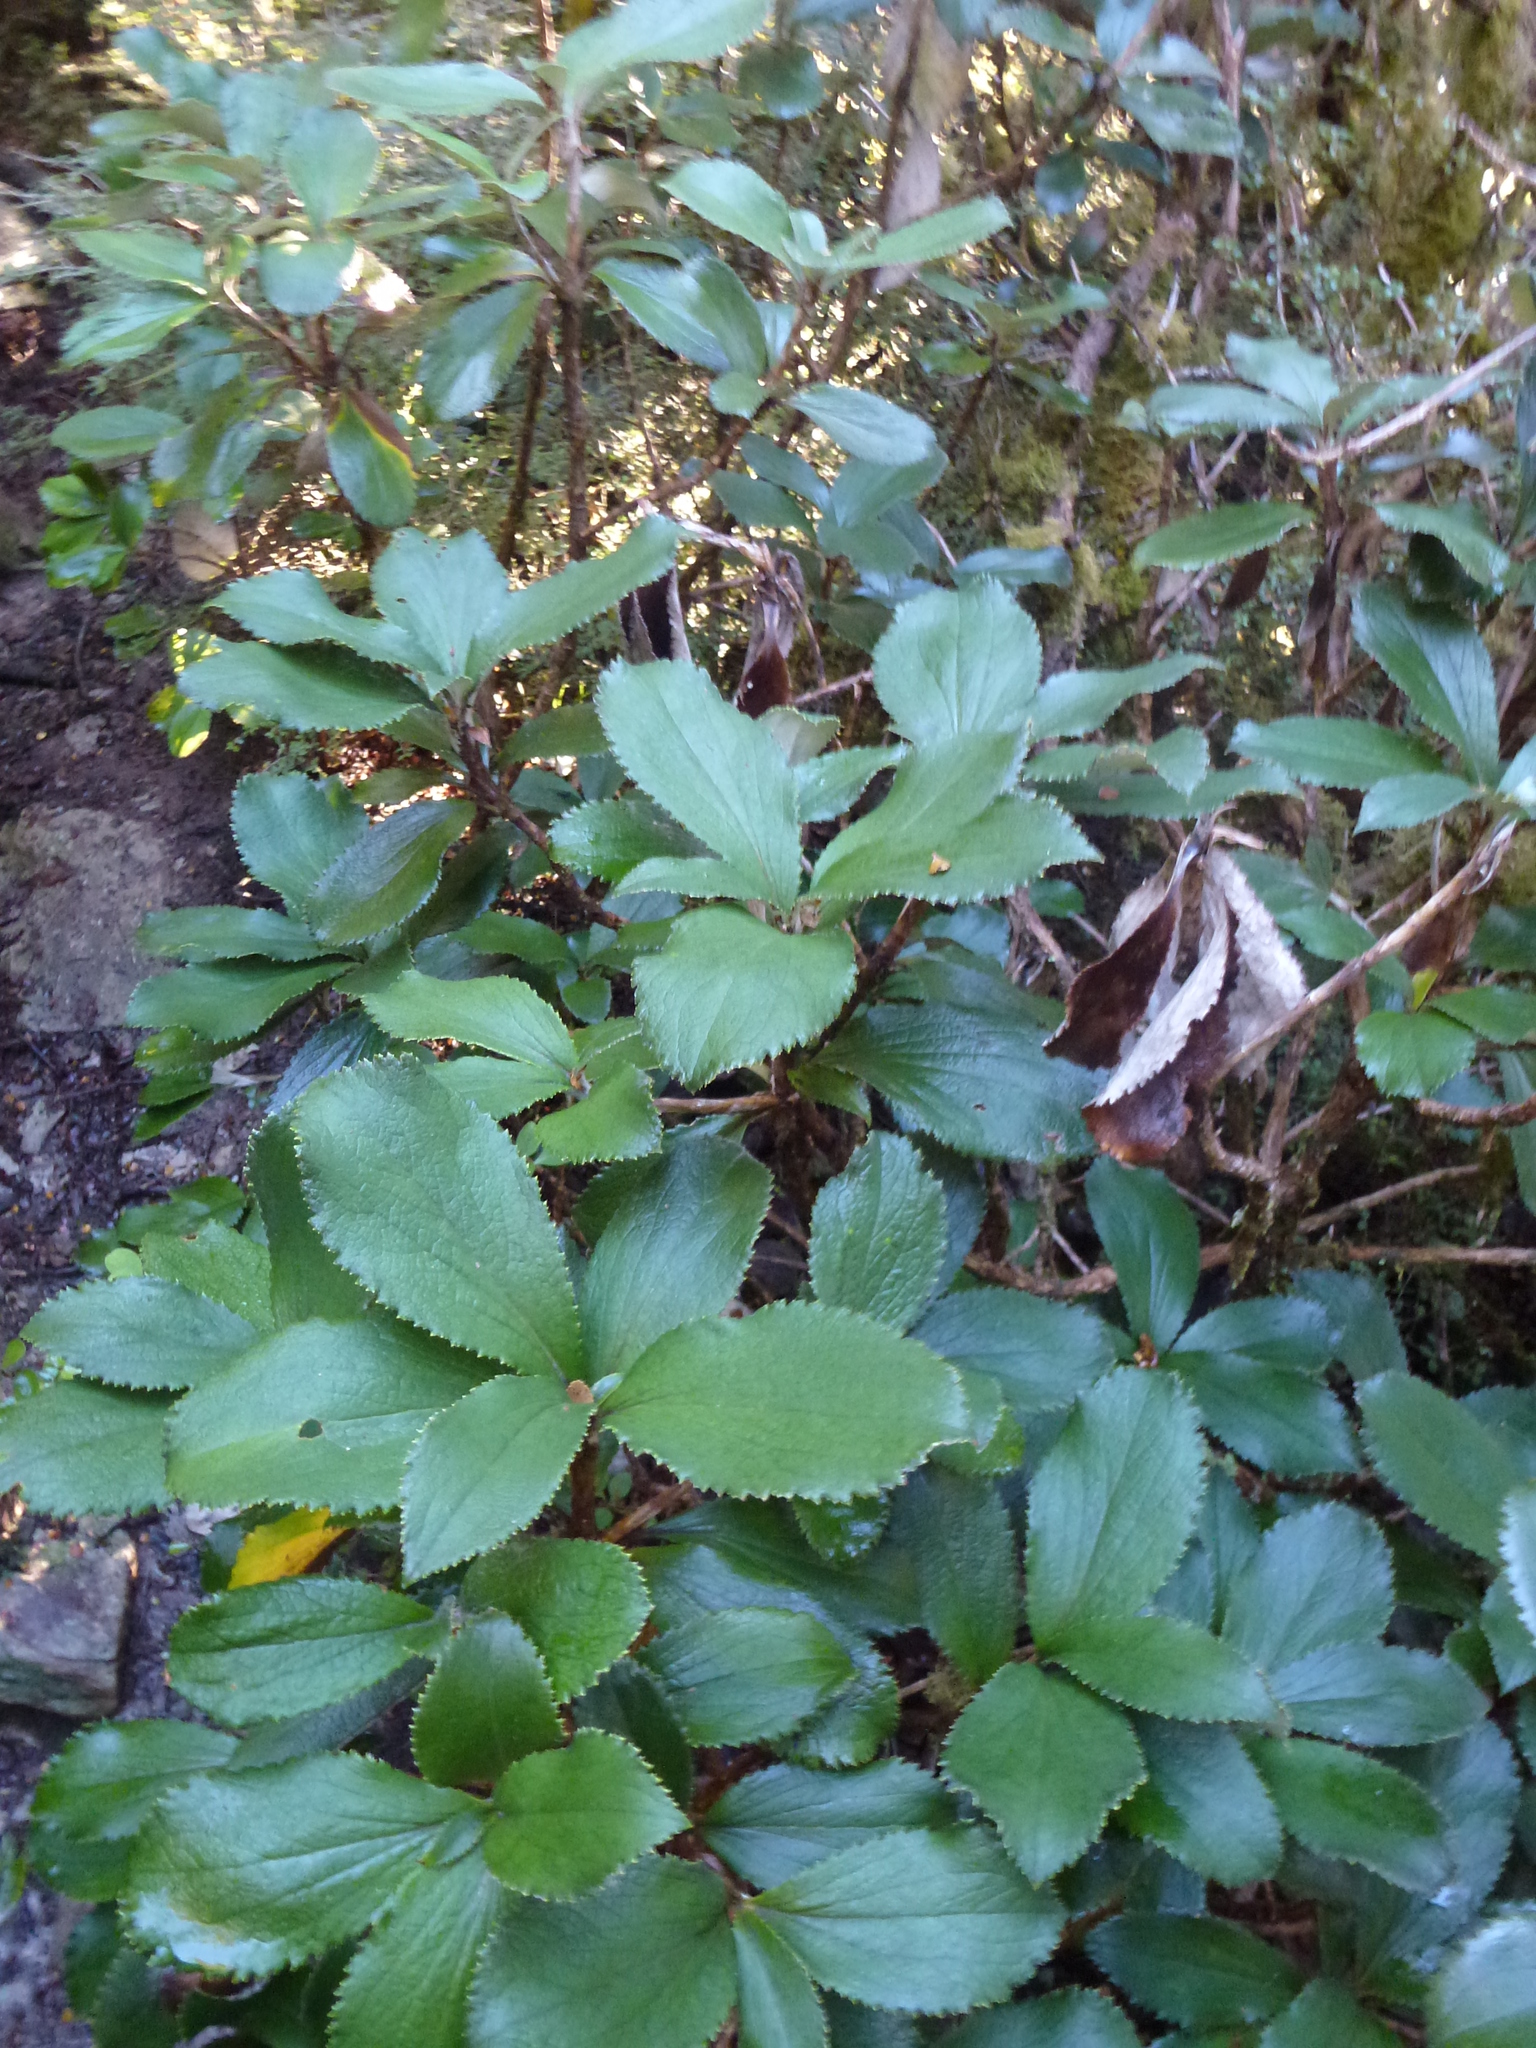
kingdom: Plantae
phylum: Tracheophyta
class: Magnoliopsida
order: Asterales
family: Asteraceae
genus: Macrolearia
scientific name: Macrolearia colensoi
